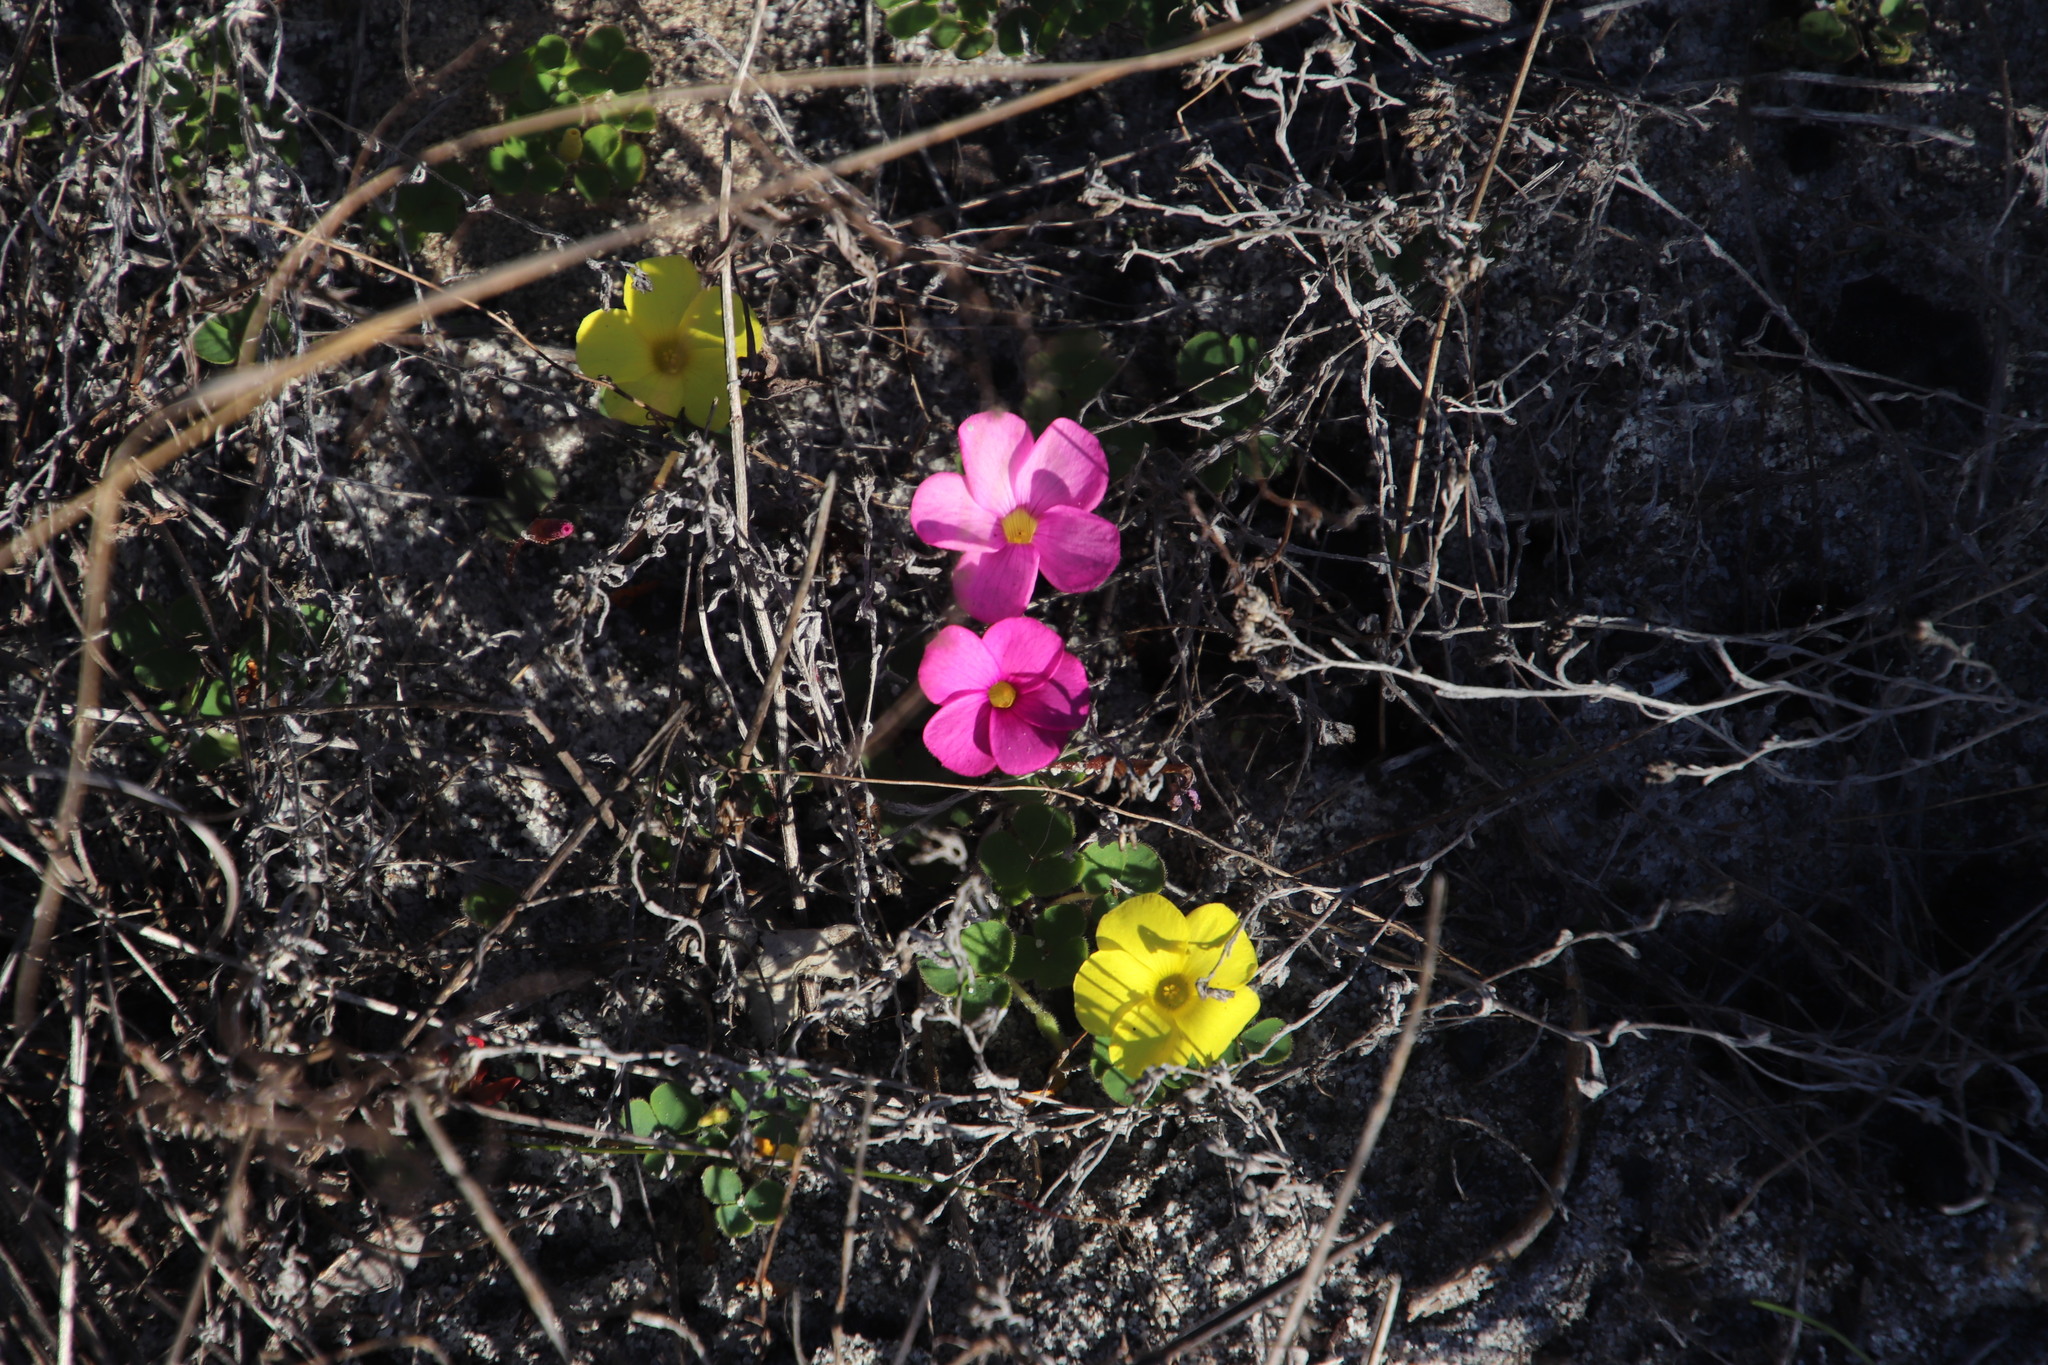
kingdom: Plantae
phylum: Tracheophyta
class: Magnoliopsida
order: Oxalidales
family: Oxalidaceae
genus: Oxalis
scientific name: Oxalis luteola
